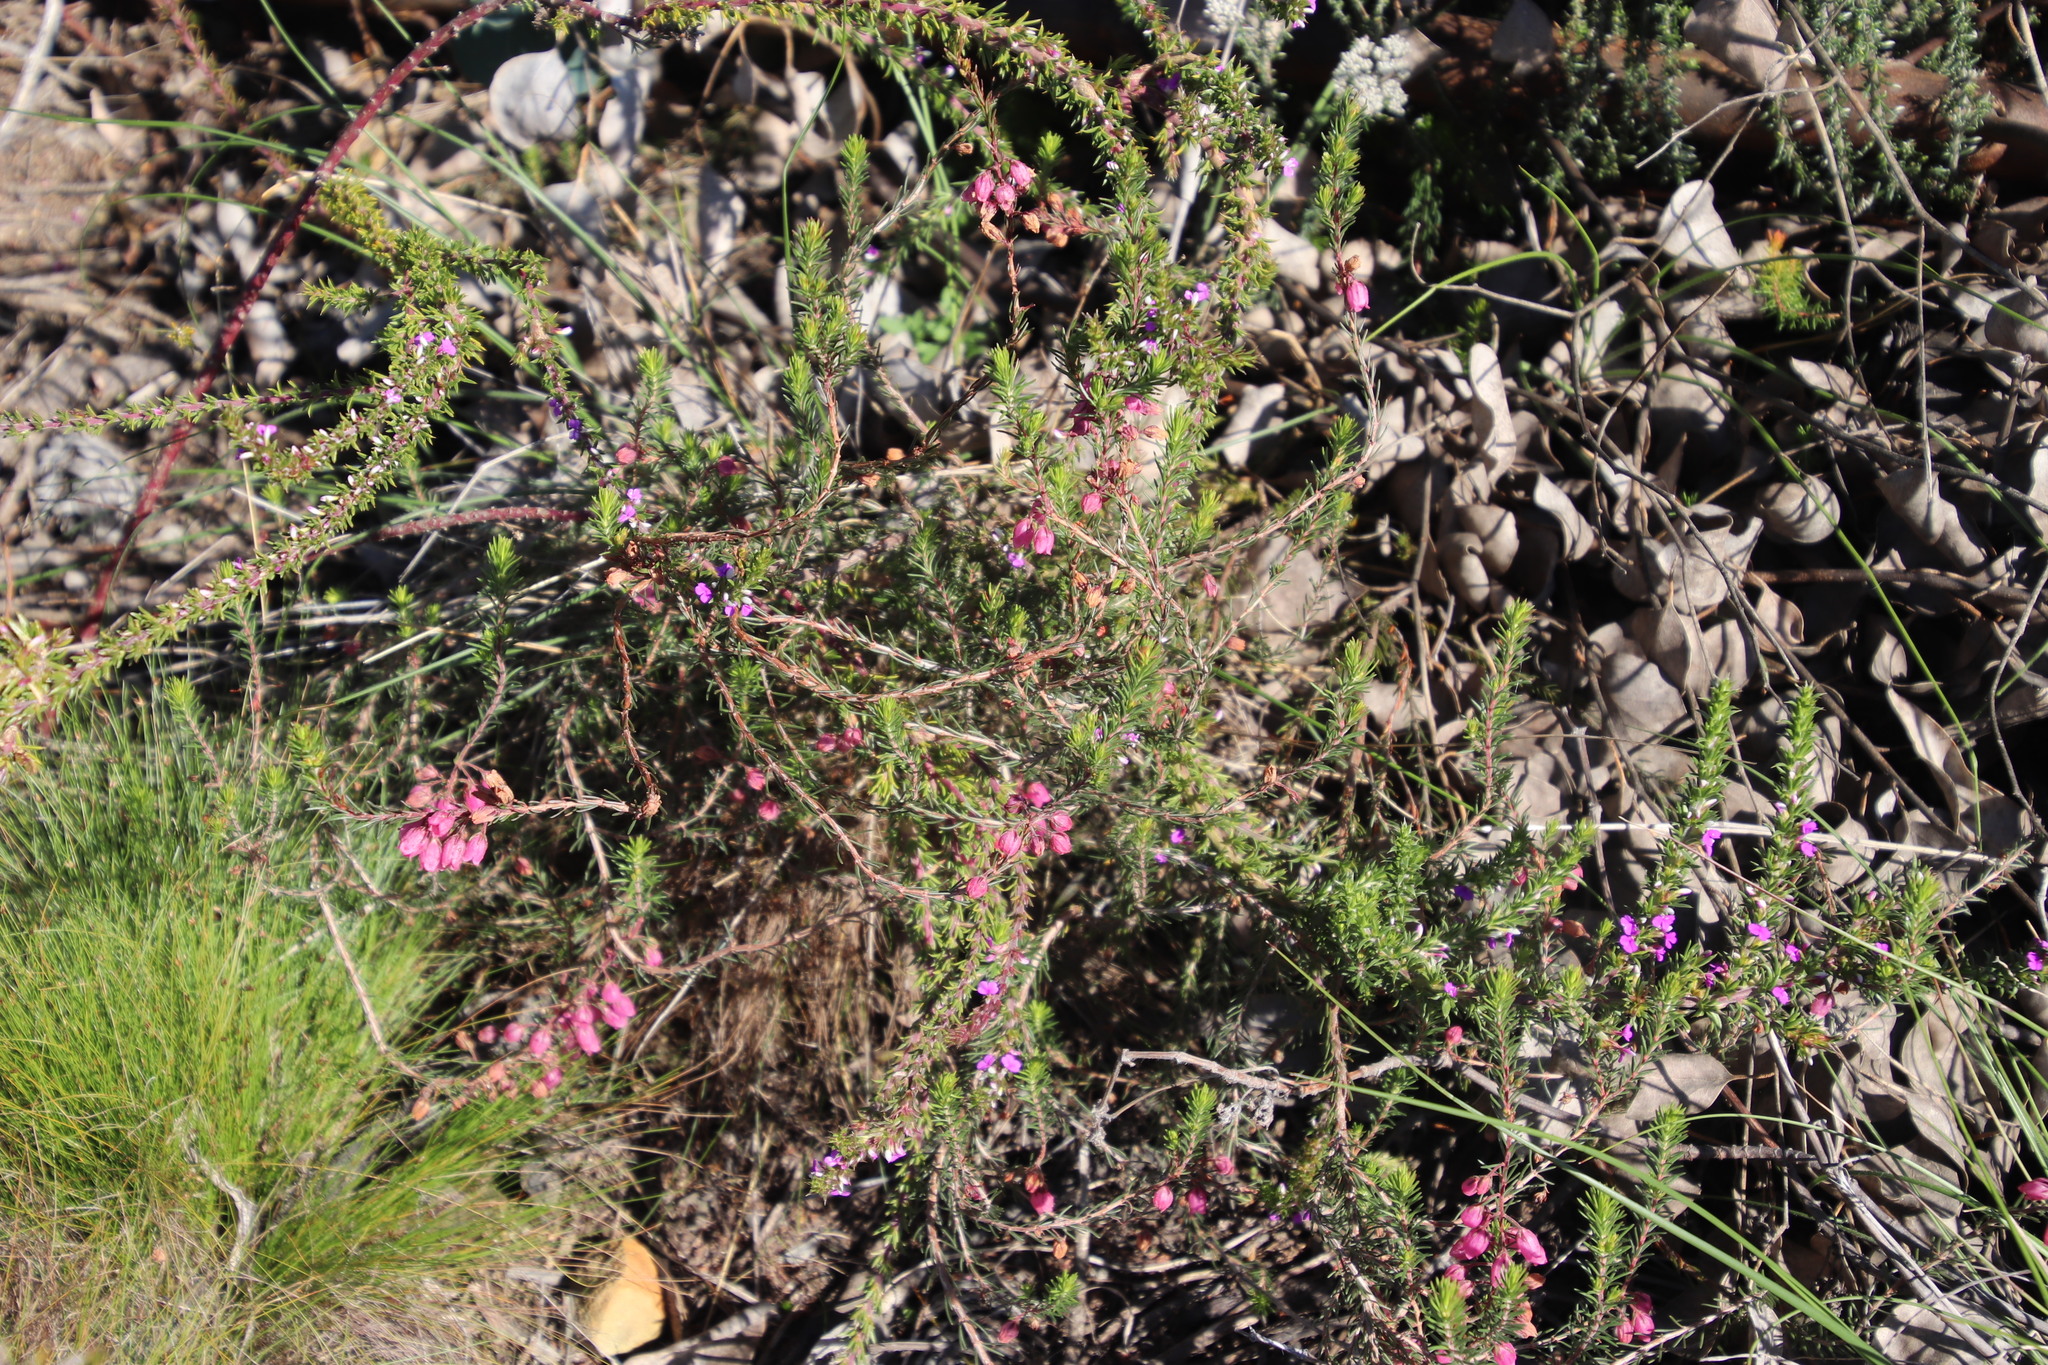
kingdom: Plantae
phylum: Tracheophyta
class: Magnoliopsida
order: Ericales
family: Ericaceae
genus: Erica
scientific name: Erica viscaria
